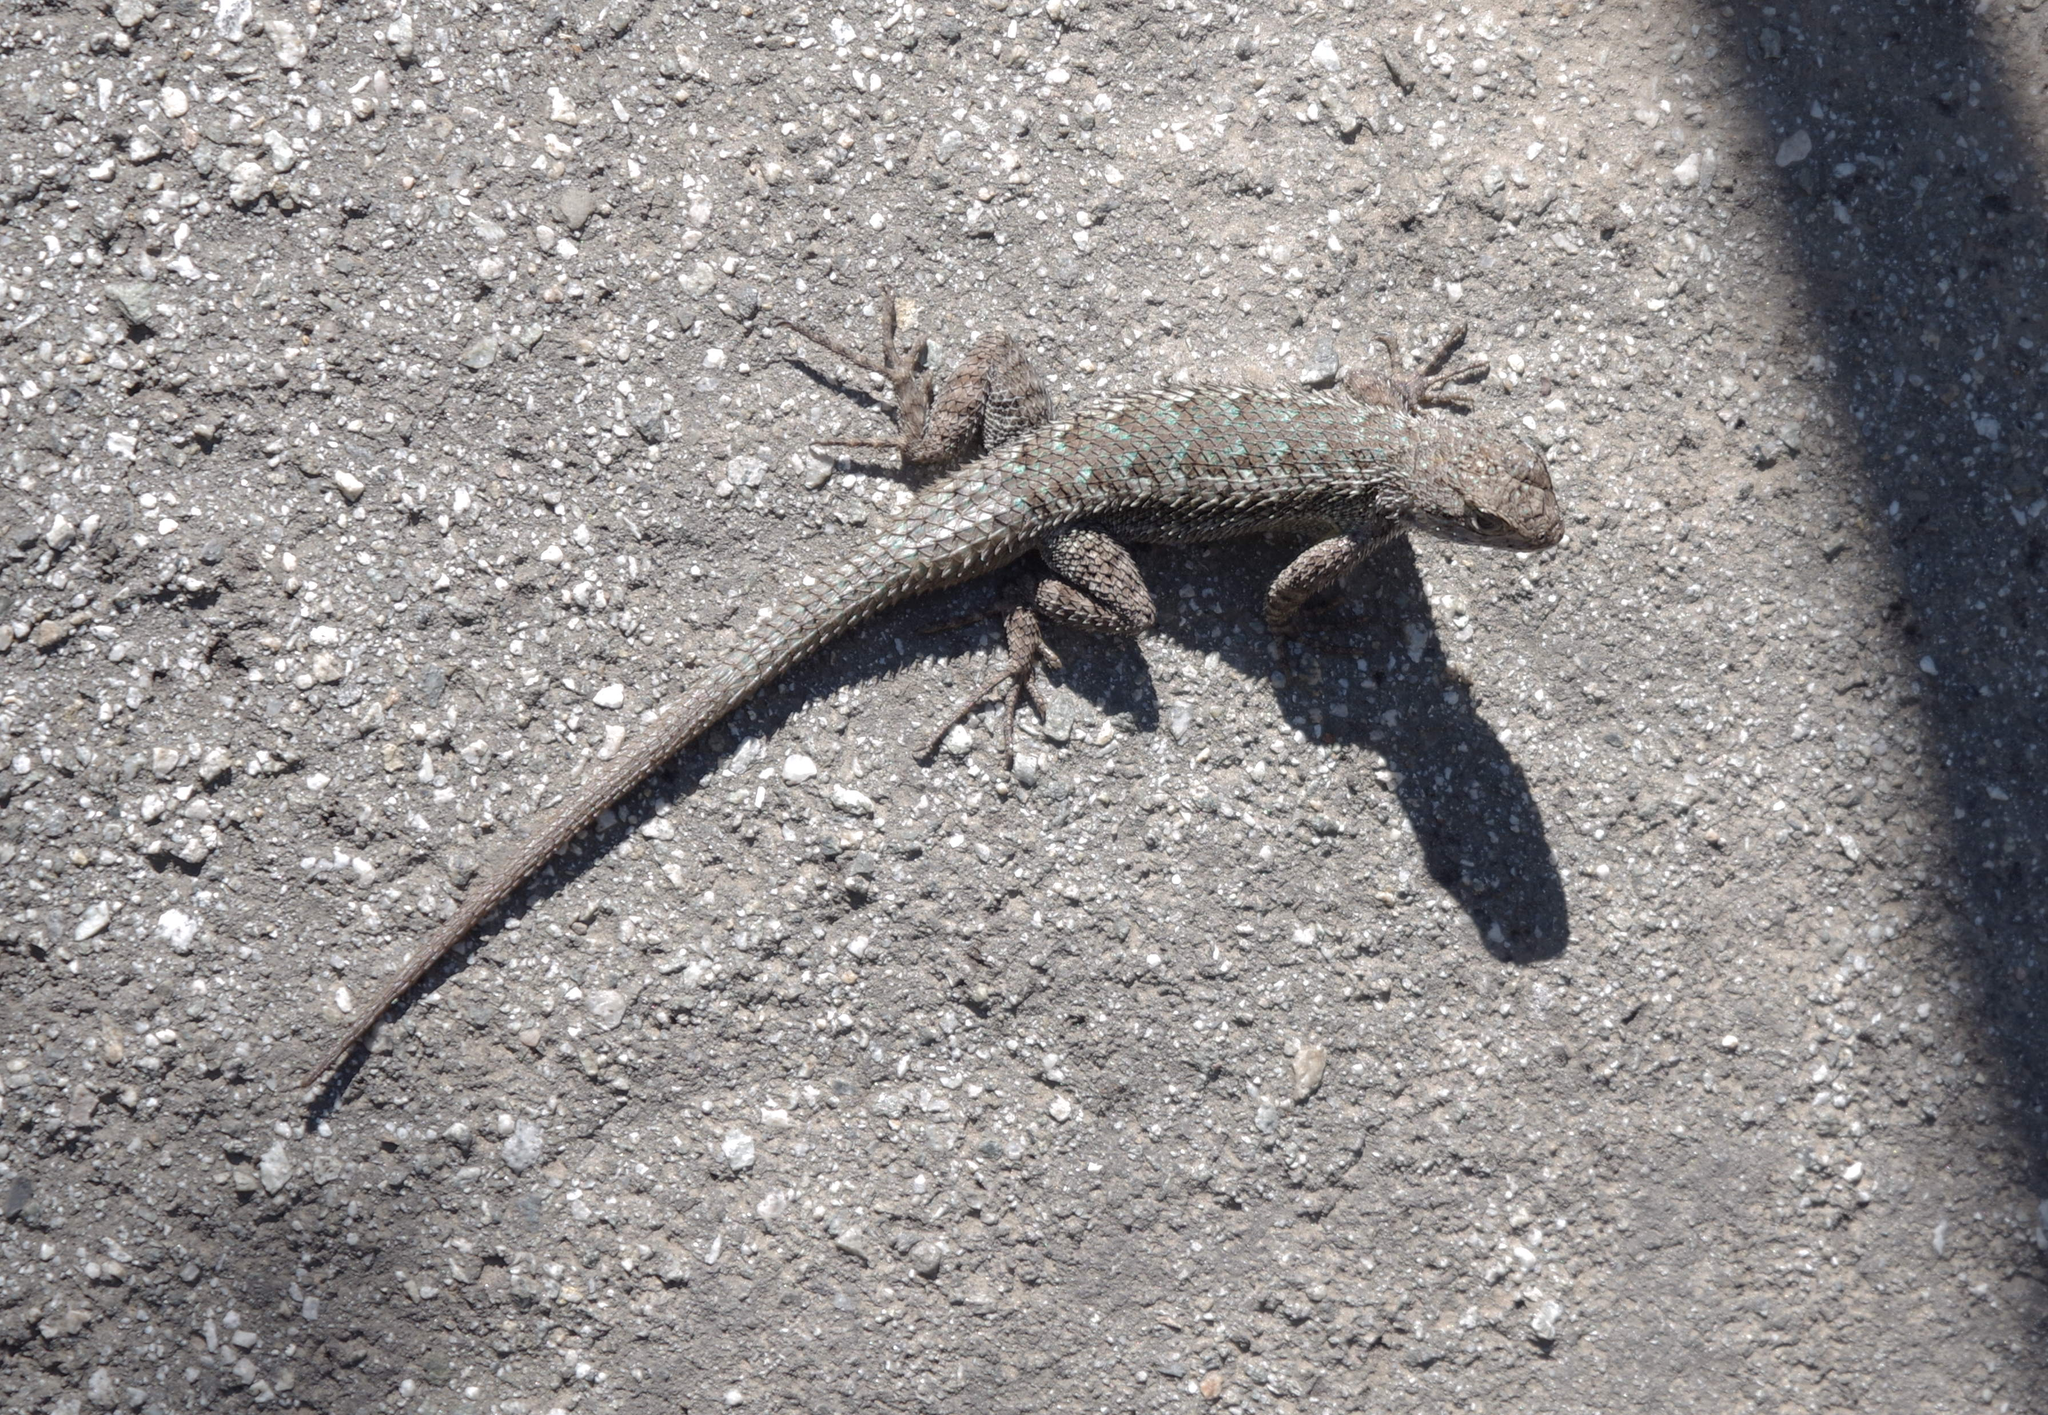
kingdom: Animalia
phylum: Chordata
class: Squamata
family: Phrynosomatidae
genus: Sceloporus
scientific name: Sceloporus occidentalis
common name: Western fence lizard
